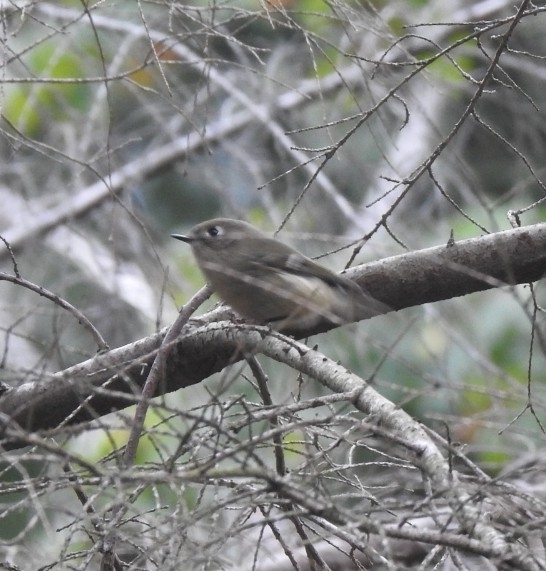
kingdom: Animalia
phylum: Chordata
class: Aves
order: Passeriformes
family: Regulidae
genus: Regulus
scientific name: Regulus calendula
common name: Ruby-crowned kinglet
